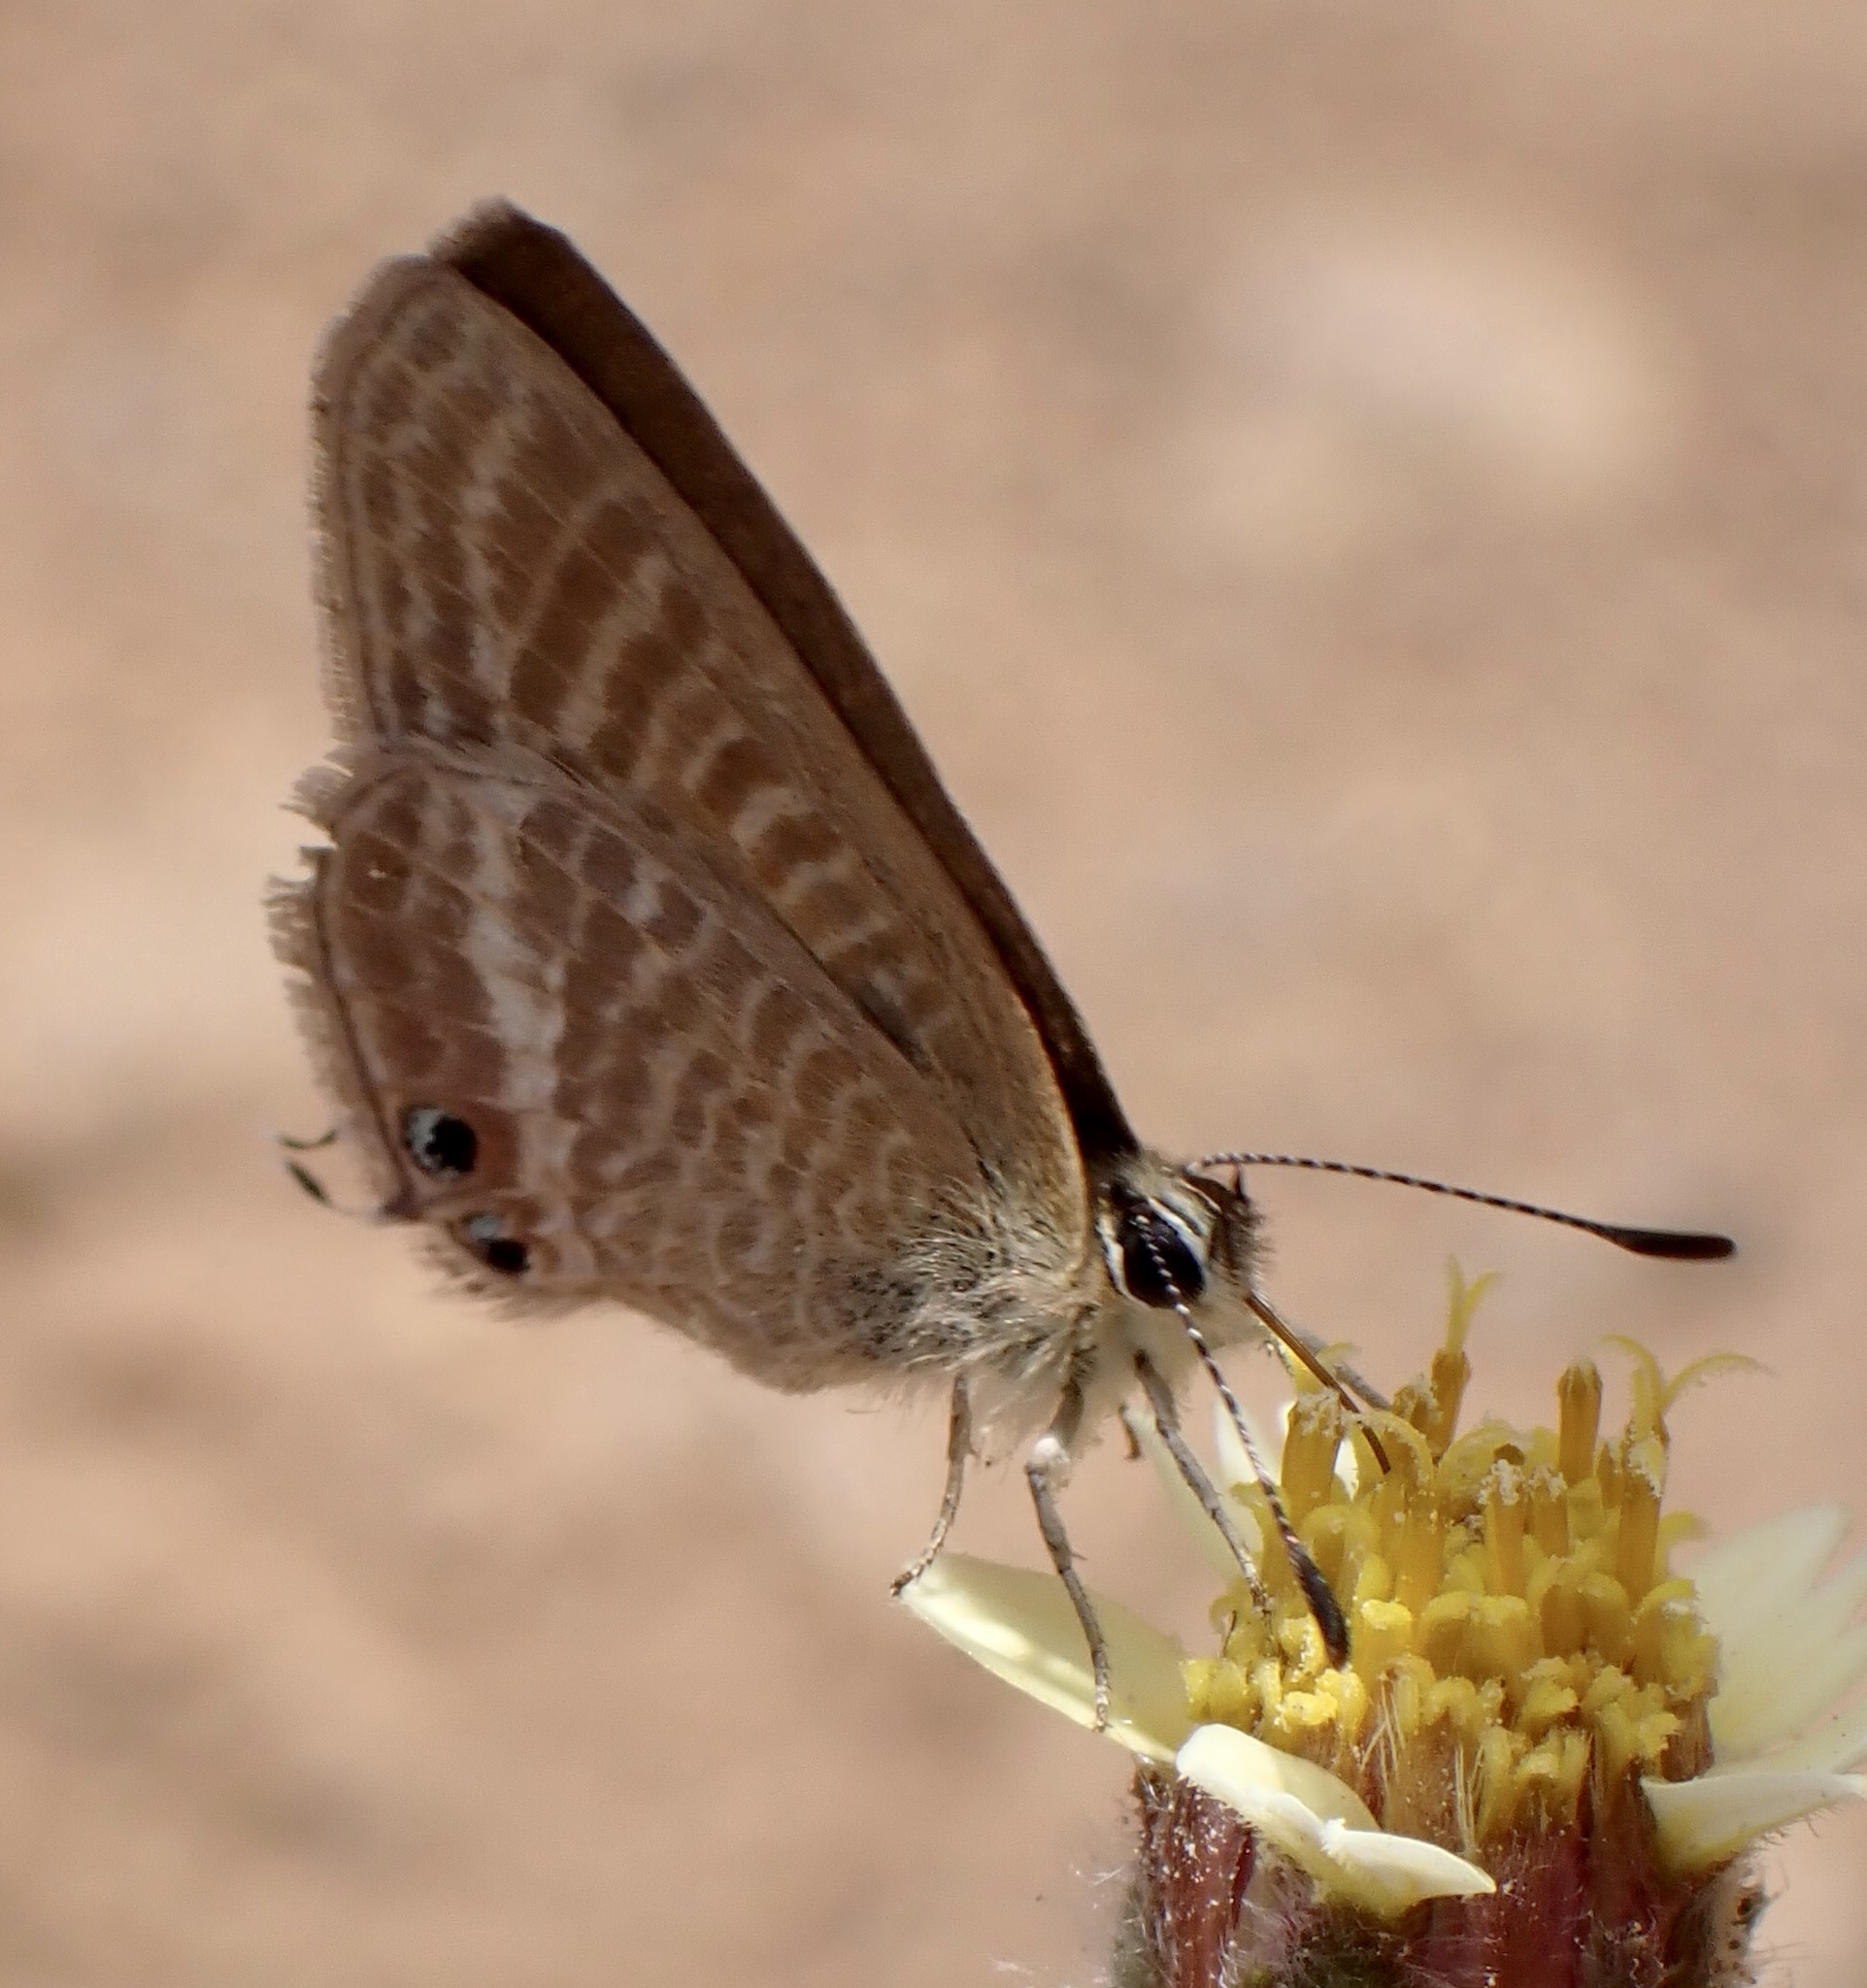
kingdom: Animalia
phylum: Arthropoda
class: Insecta
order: Lepidoptera
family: Lycaenidae
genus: Lampides
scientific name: Lampides boeticus
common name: Long-tailed blue
